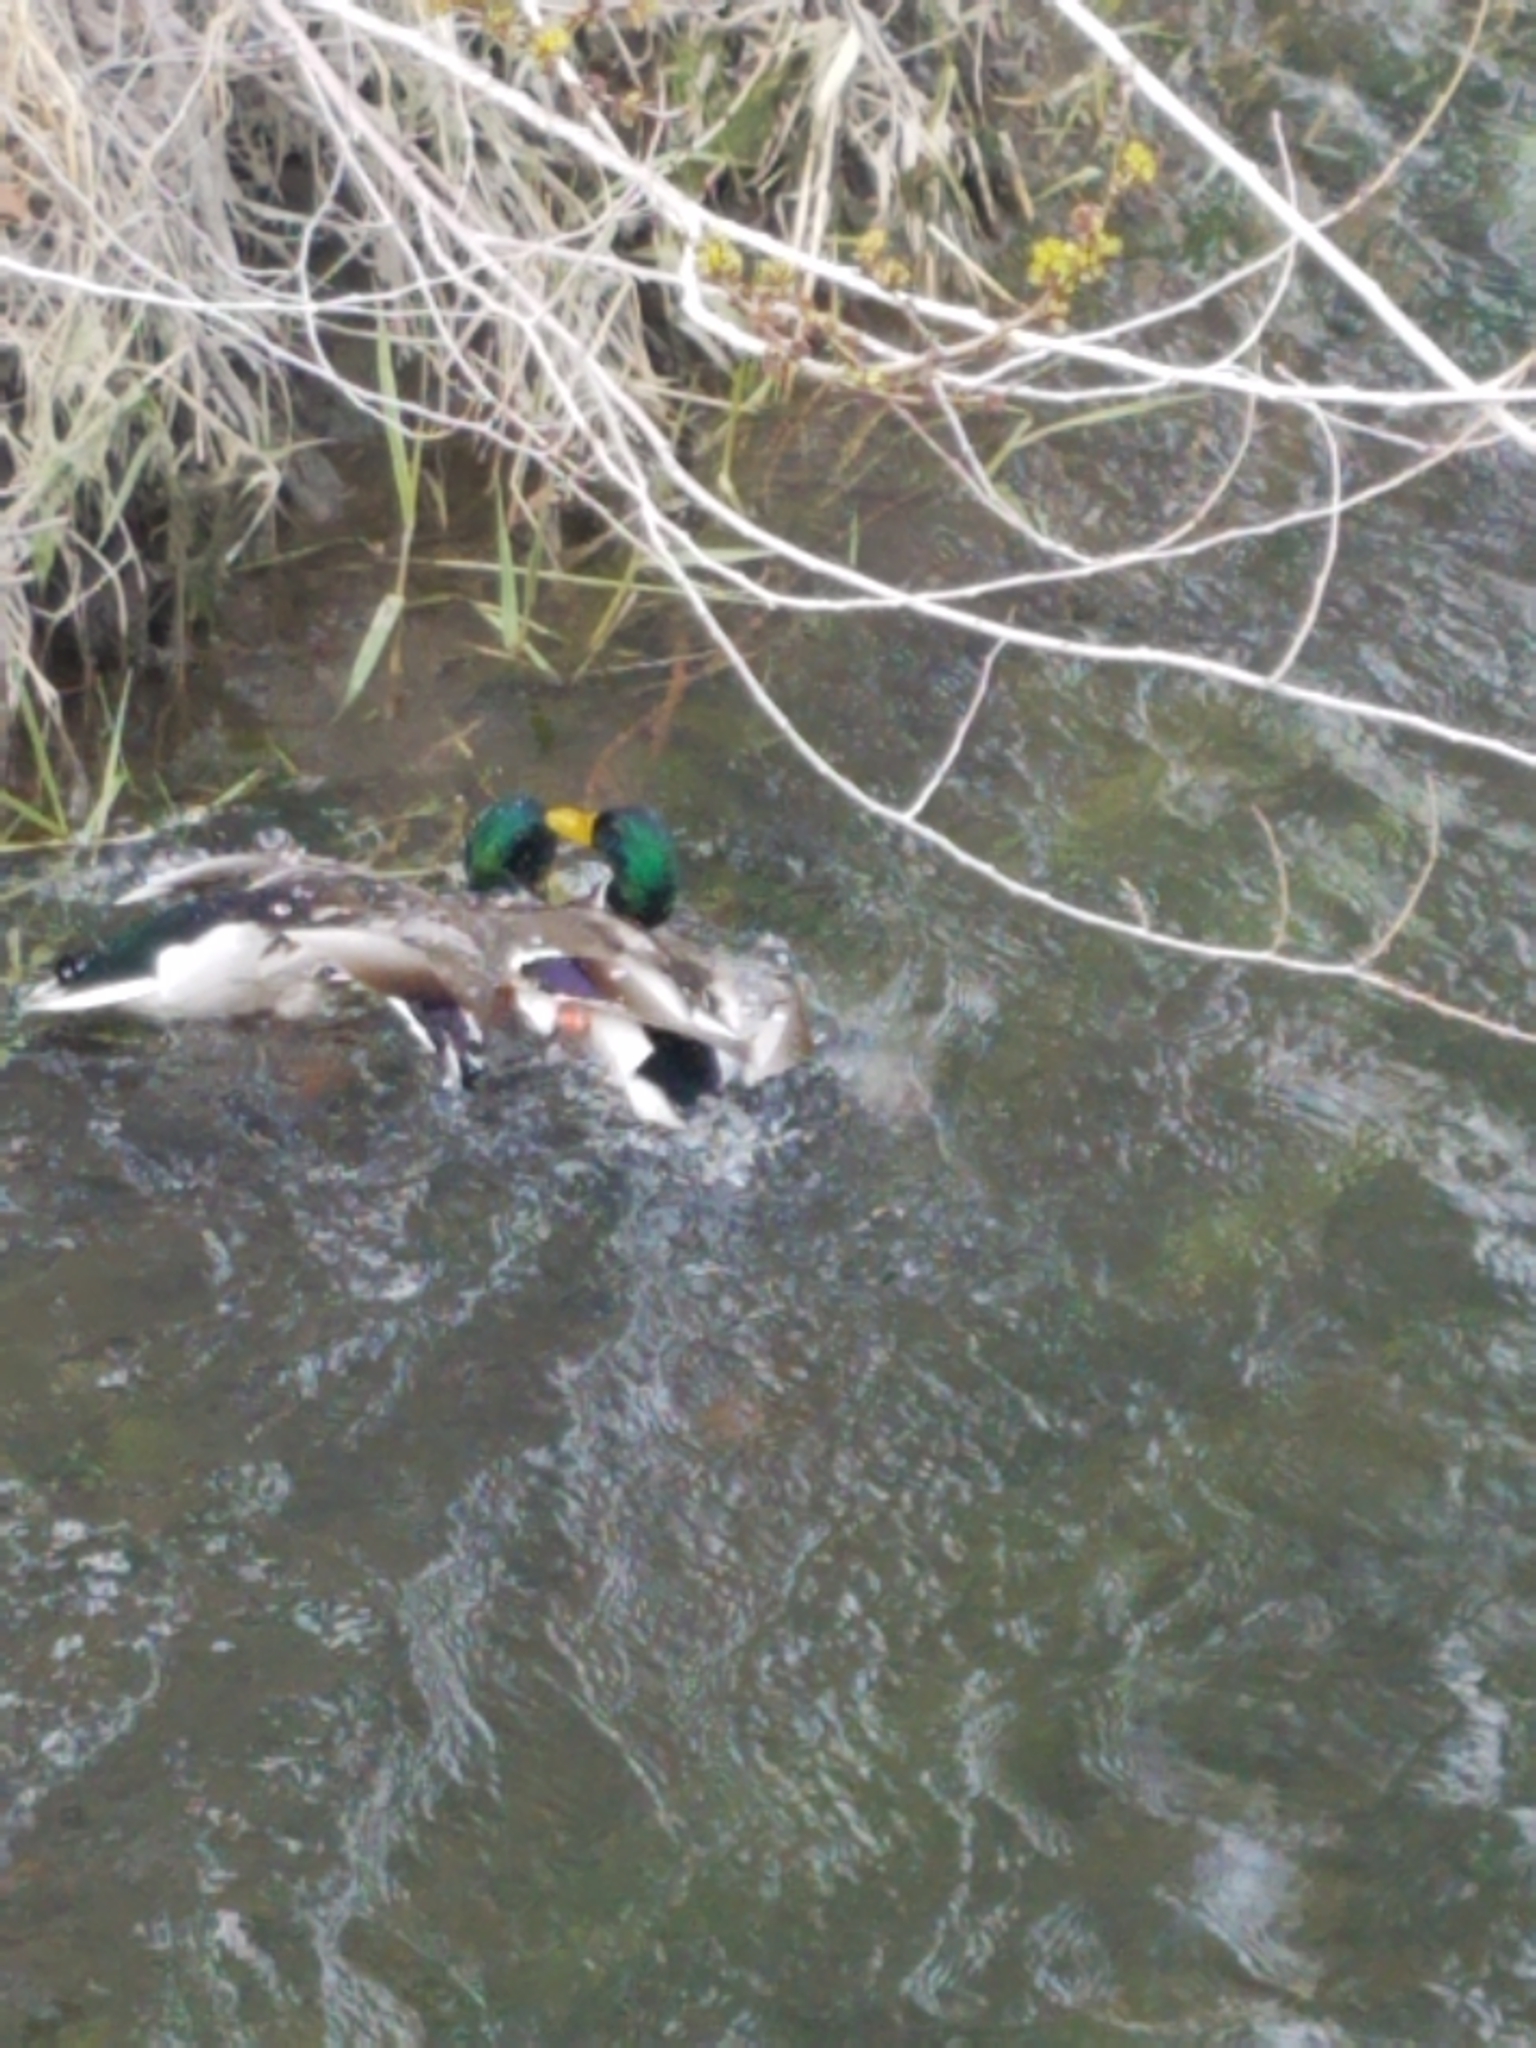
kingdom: Animalia
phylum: Chordata
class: Aves
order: Anseriformes
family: Anatidae
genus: Anas
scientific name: Anas platyrhynchos
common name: Mallard
